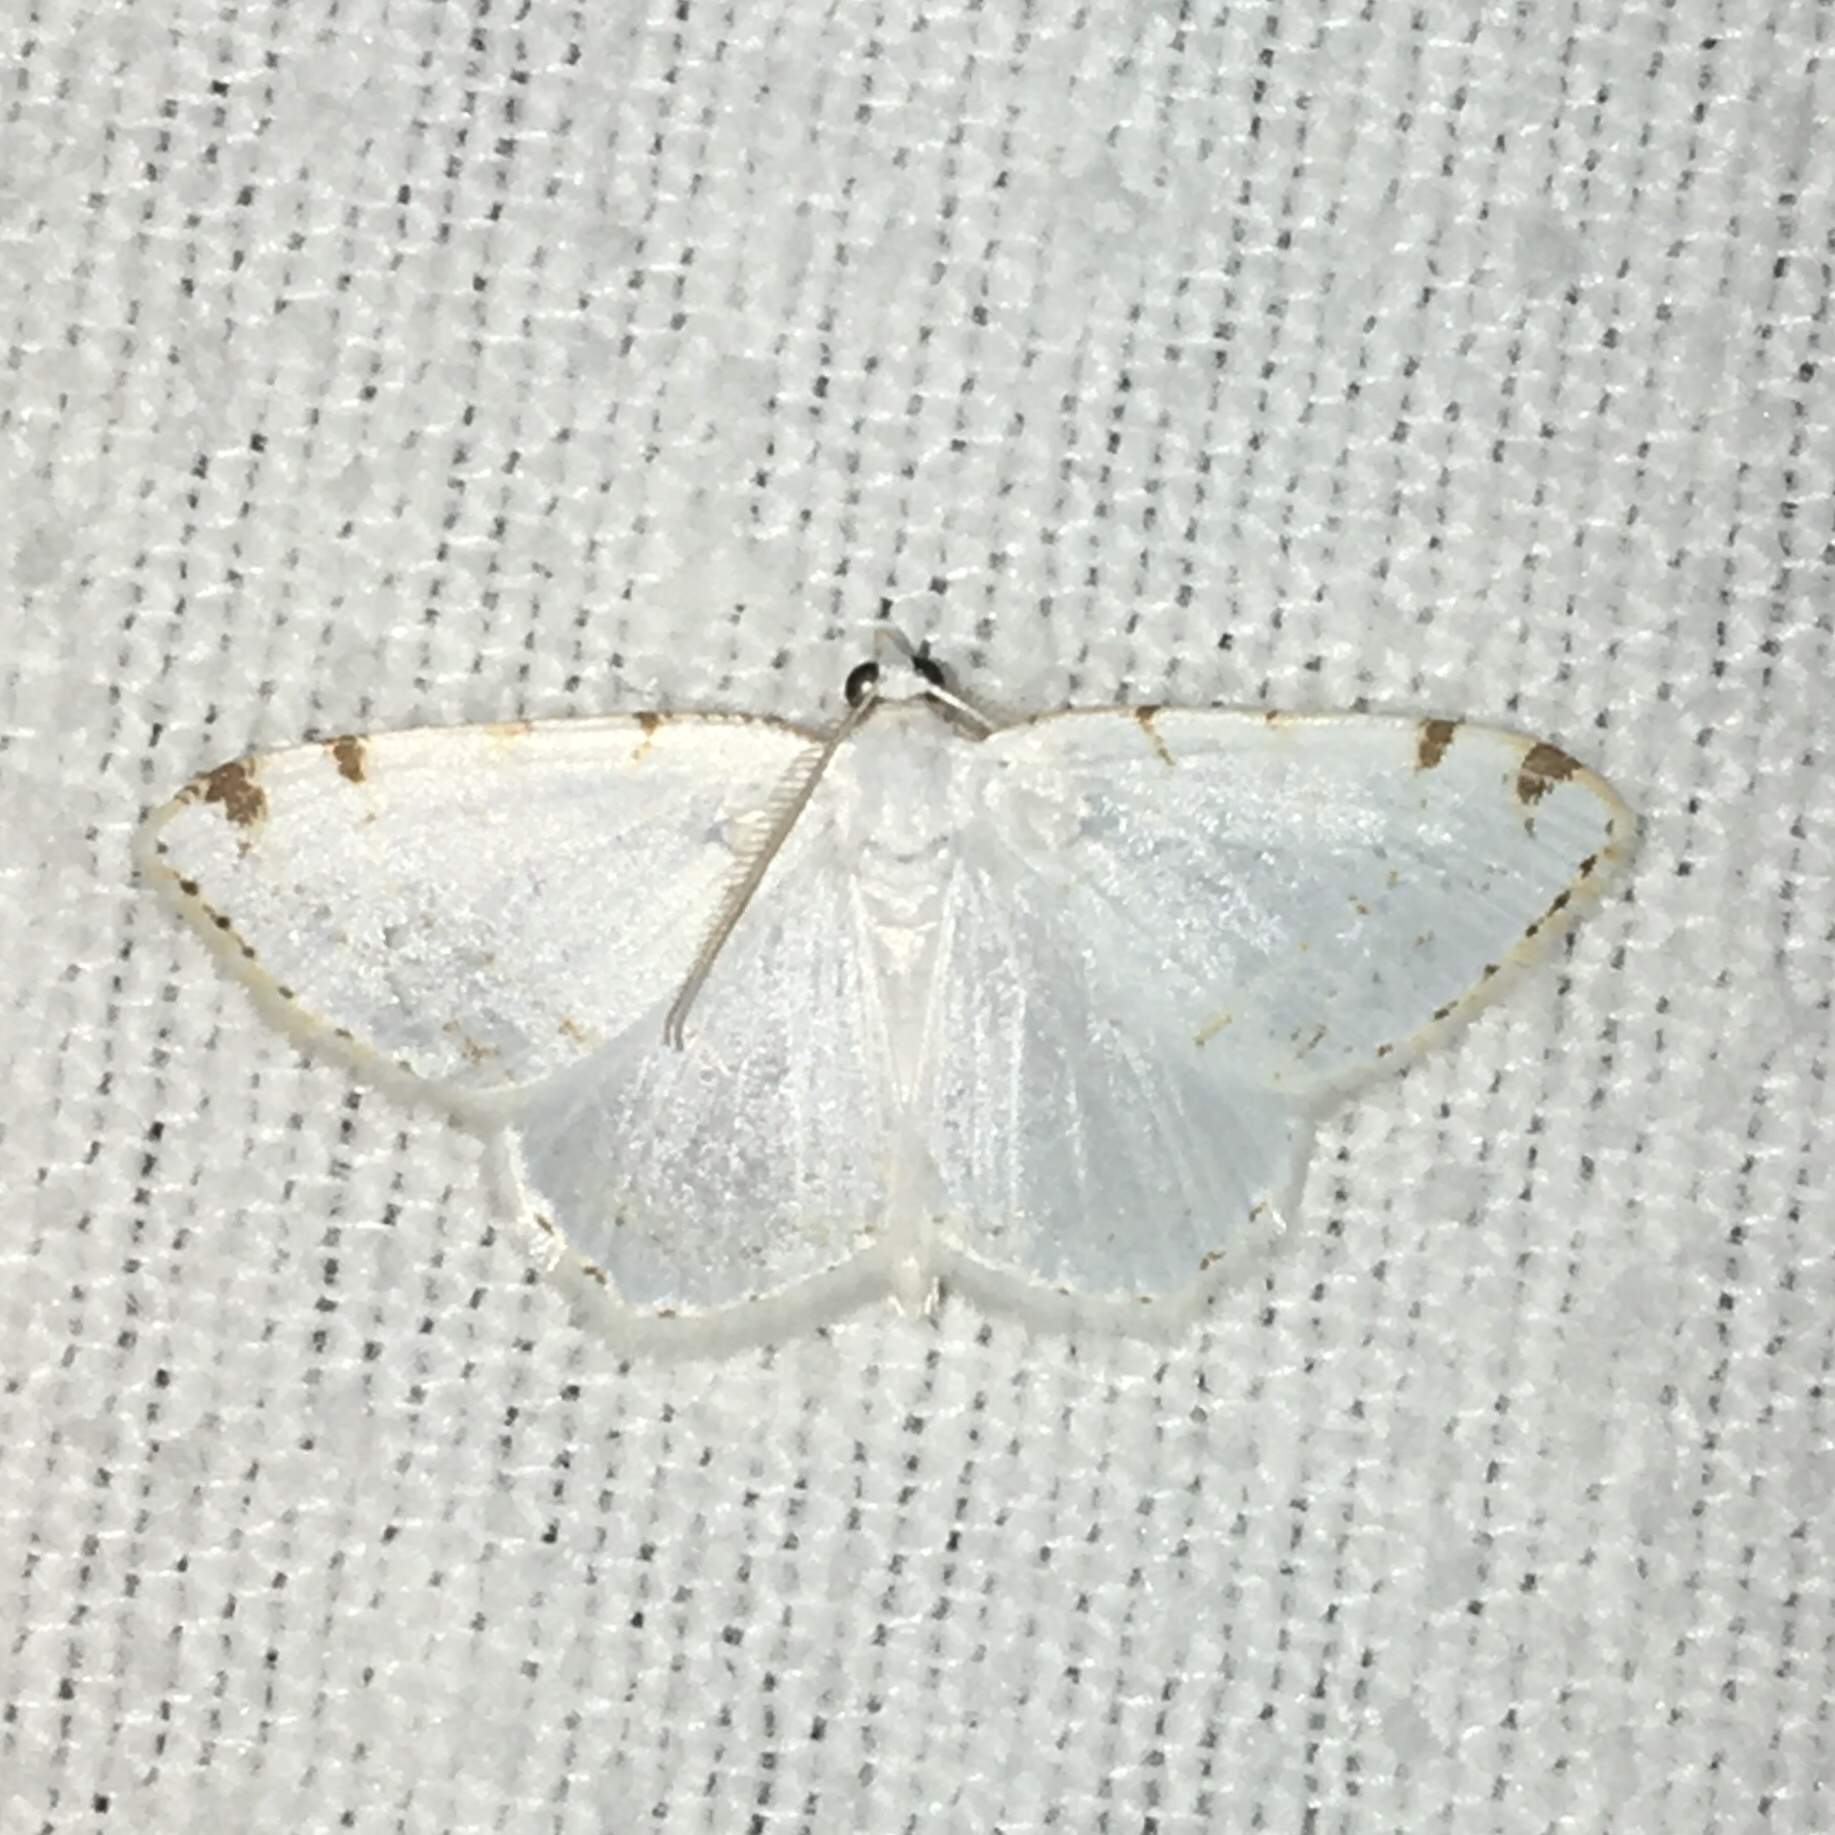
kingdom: Animalia
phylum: Arthropoda
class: Insecta
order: Lepidoptera
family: Geometridae
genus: Macaria
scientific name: Macaria pustularia
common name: Lesser maple spanworm moth
